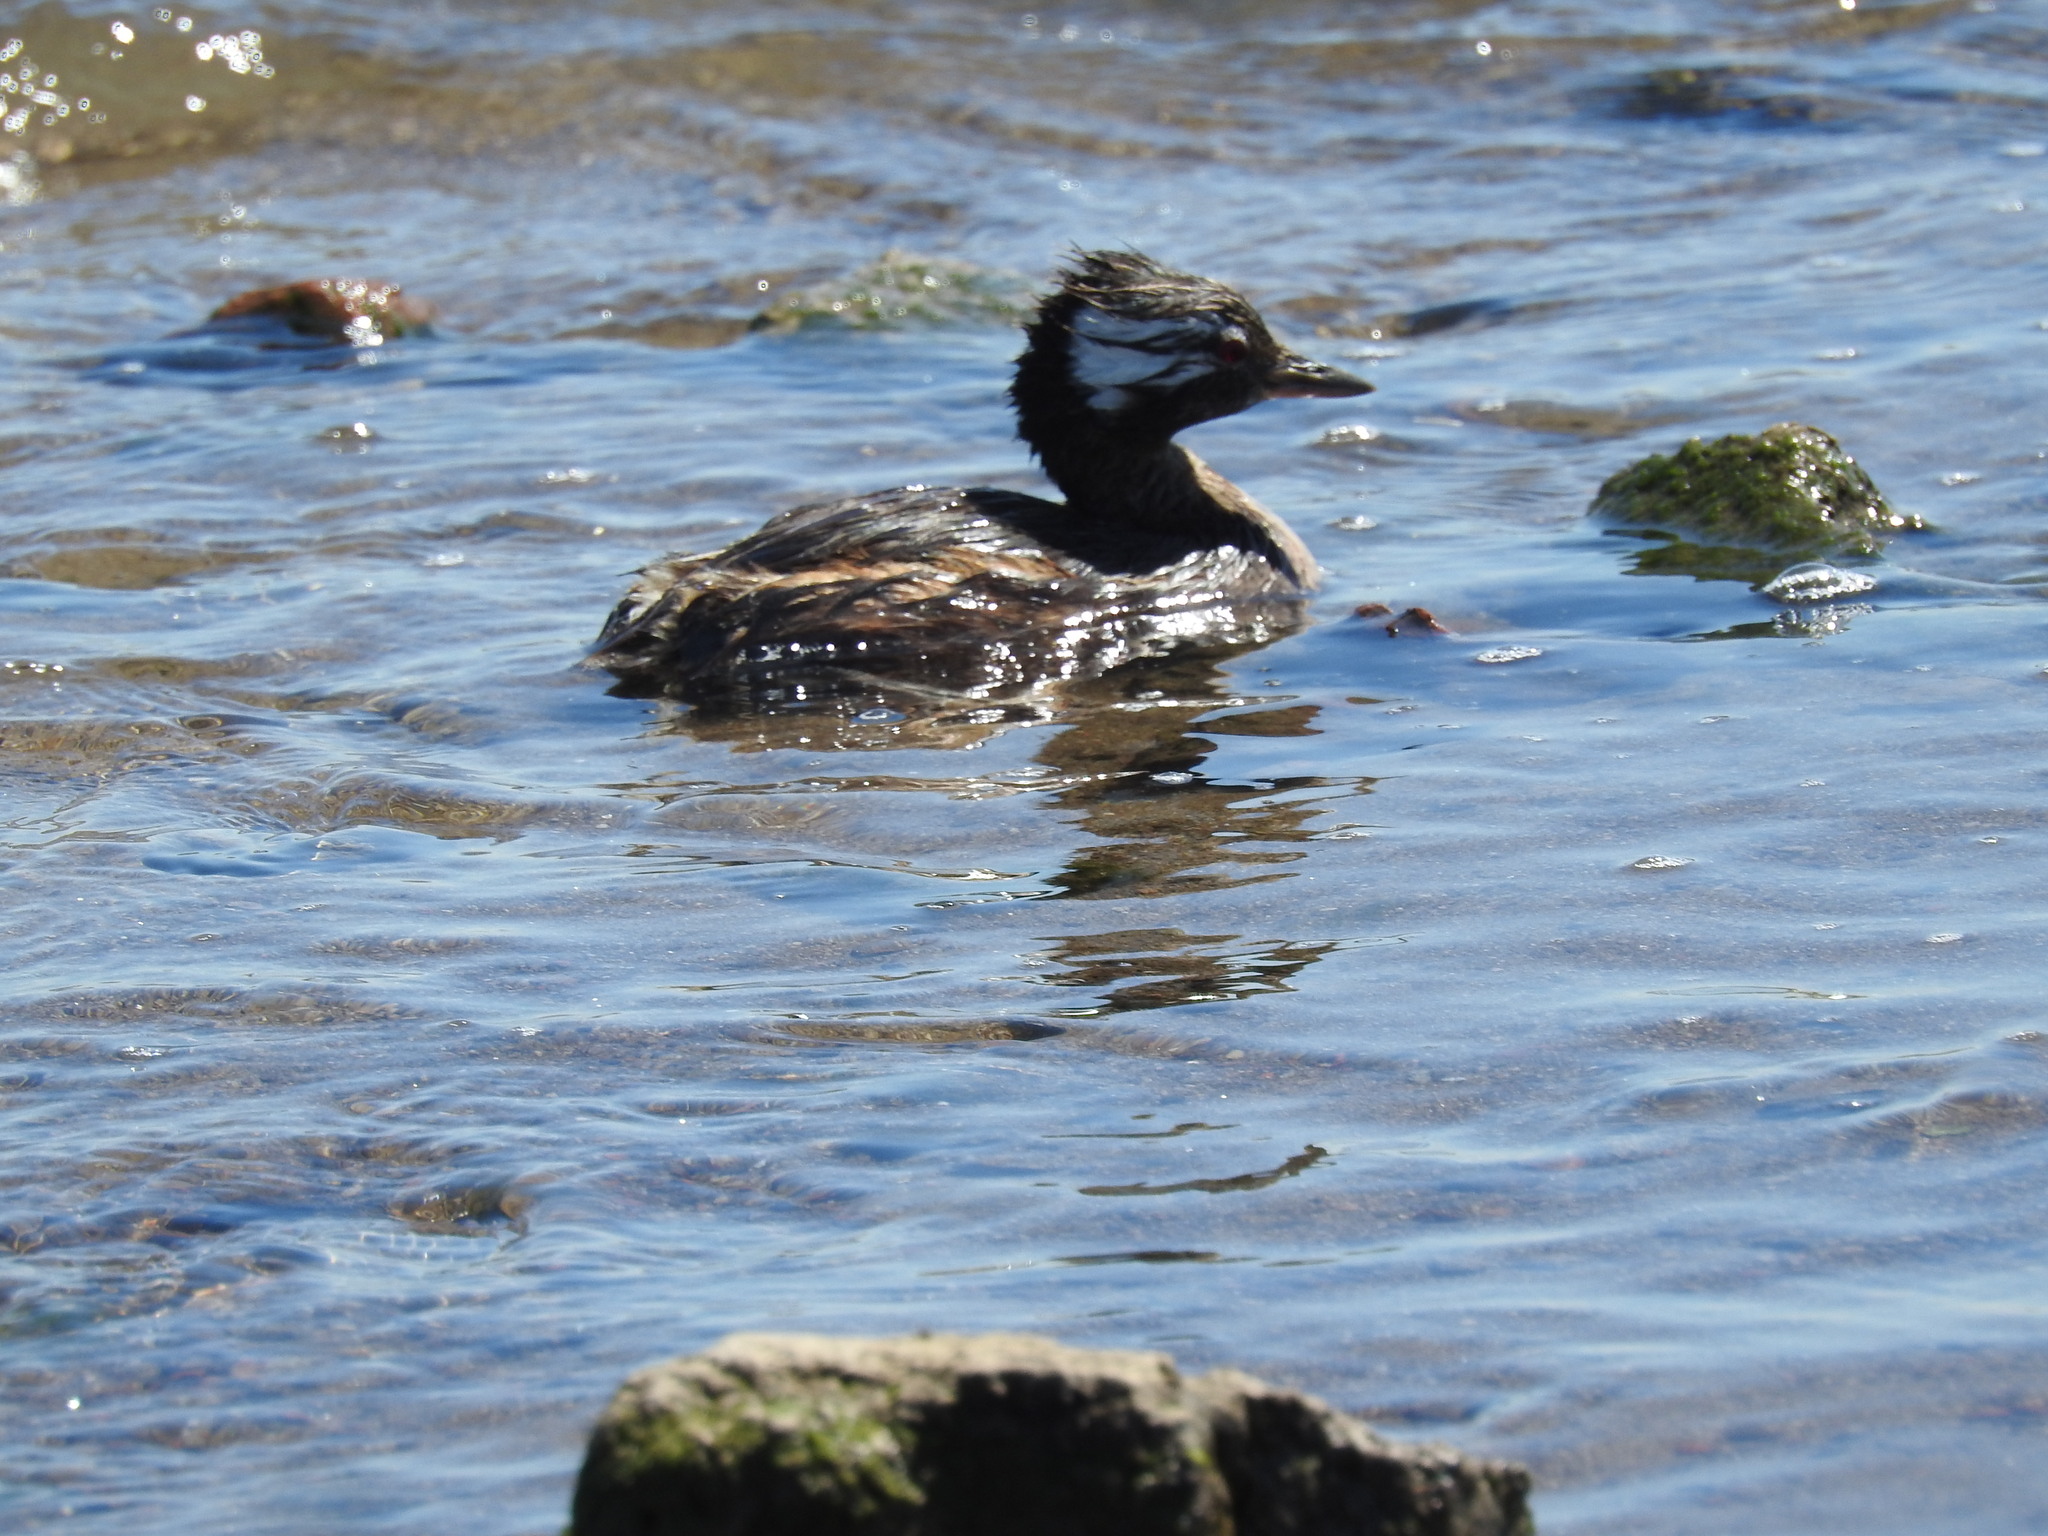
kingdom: Animalia
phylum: Chordata
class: Aves
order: Podicipediformes
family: Podicipedidae
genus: Rollandia
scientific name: Rollandia rolland
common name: White-tufted grebe
